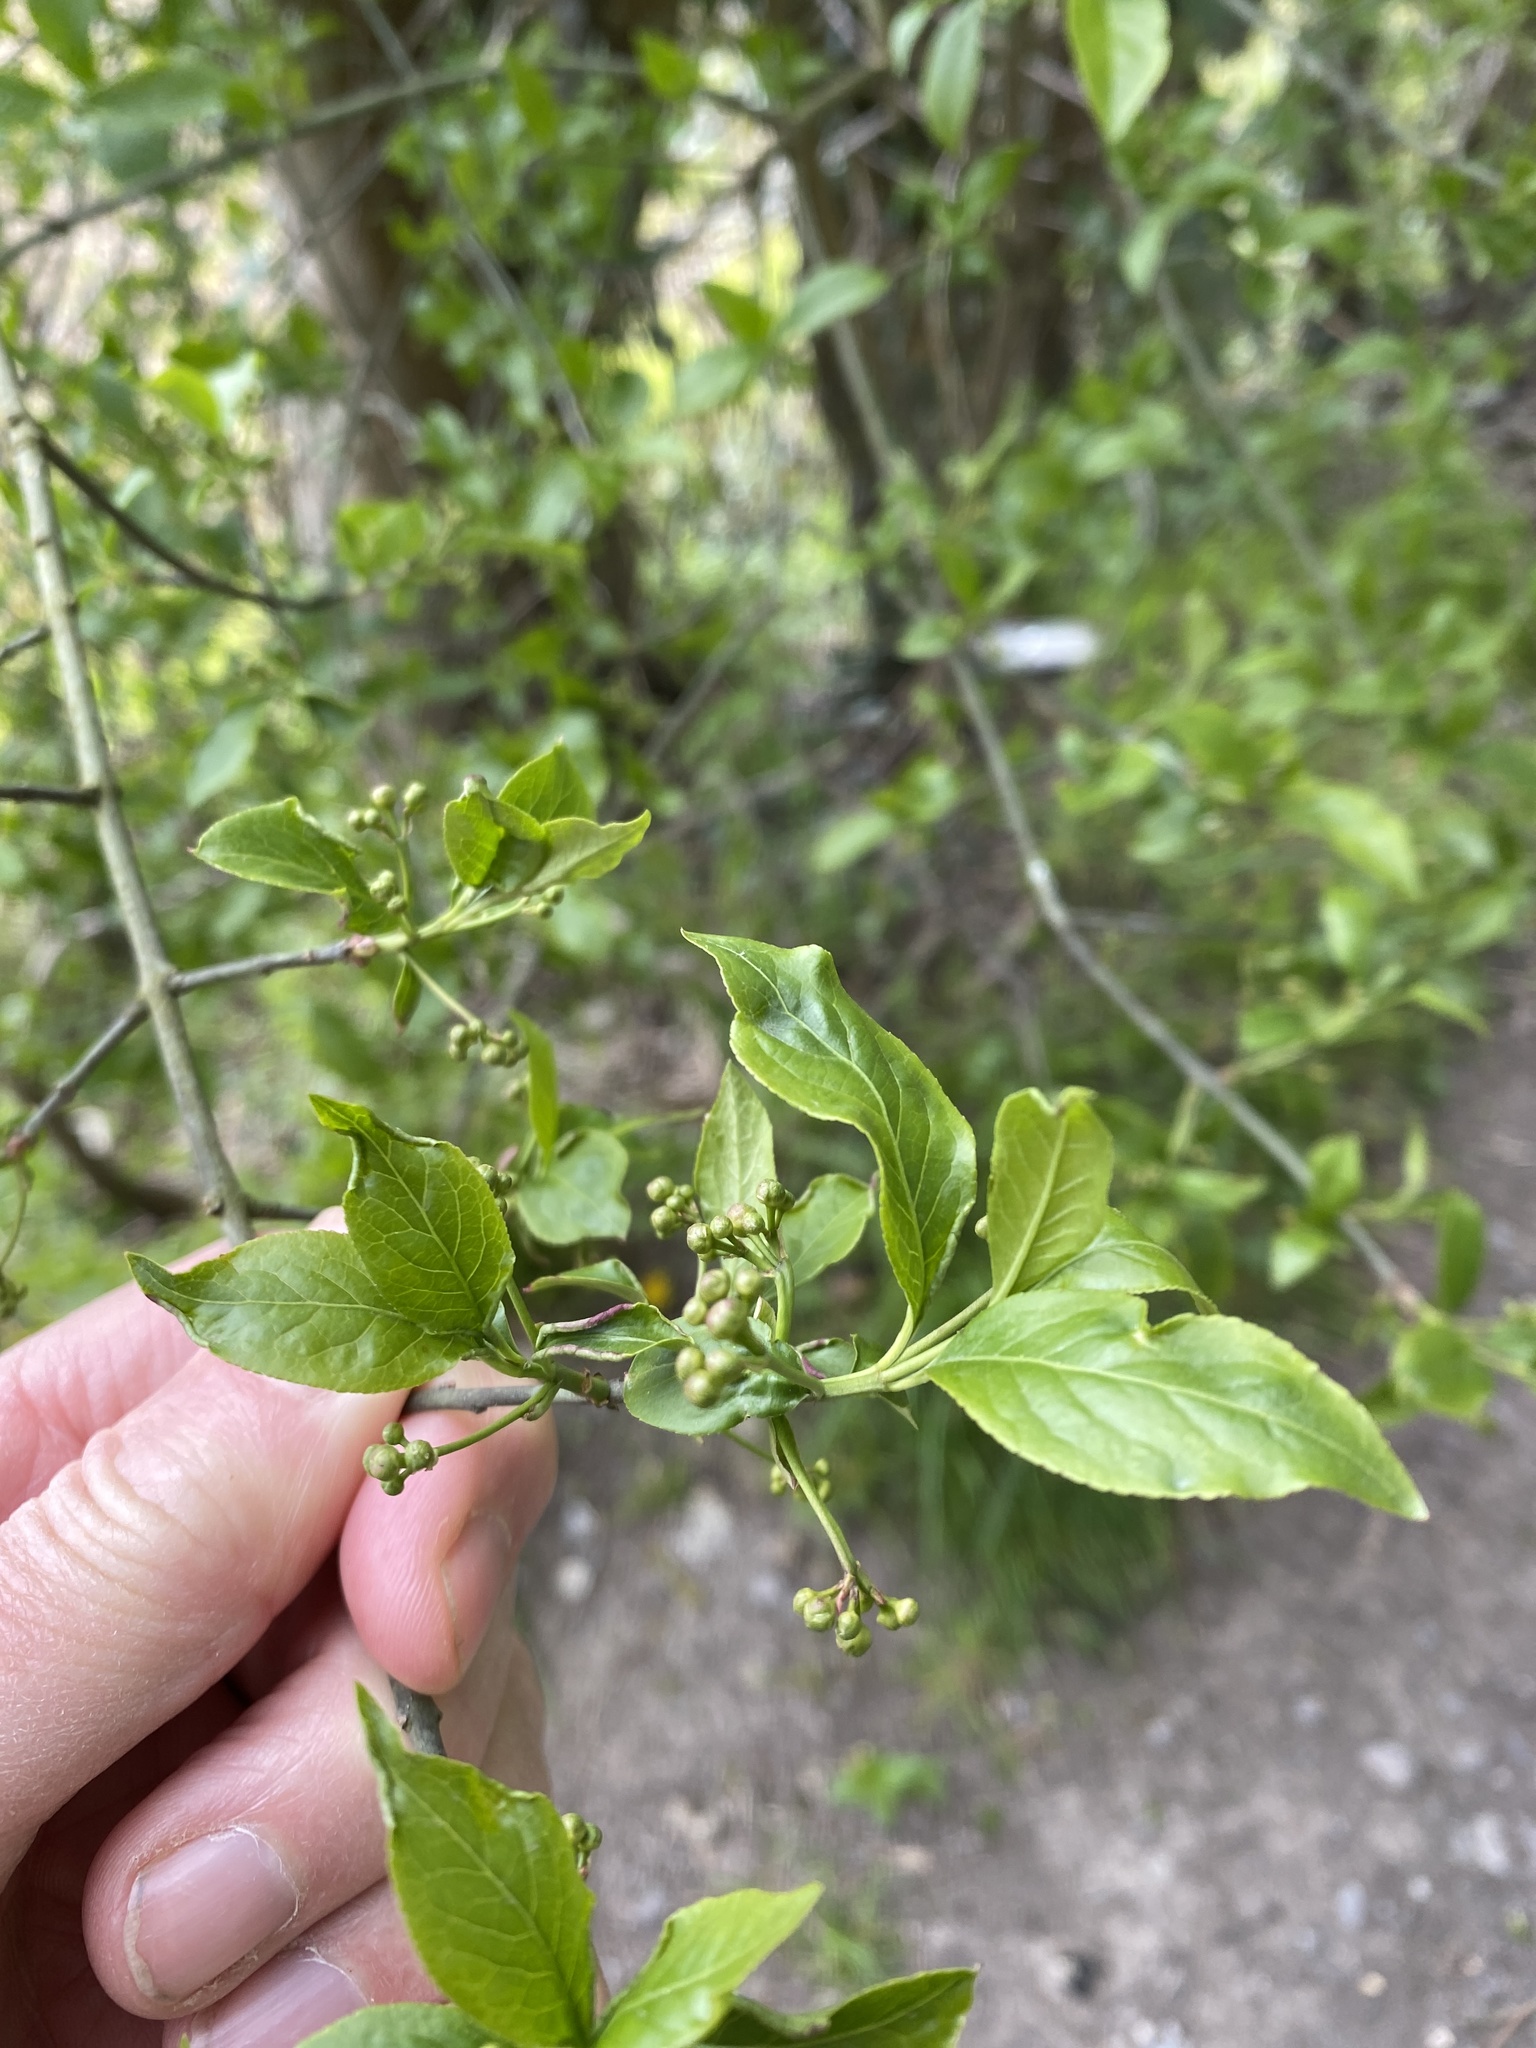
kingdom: Plantae
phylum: Tracheophyta
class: Magnoliopsida
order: Celastrales
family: Celastraceae
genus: Euonymus
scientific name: Euonymus europaeus
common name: Spindle
